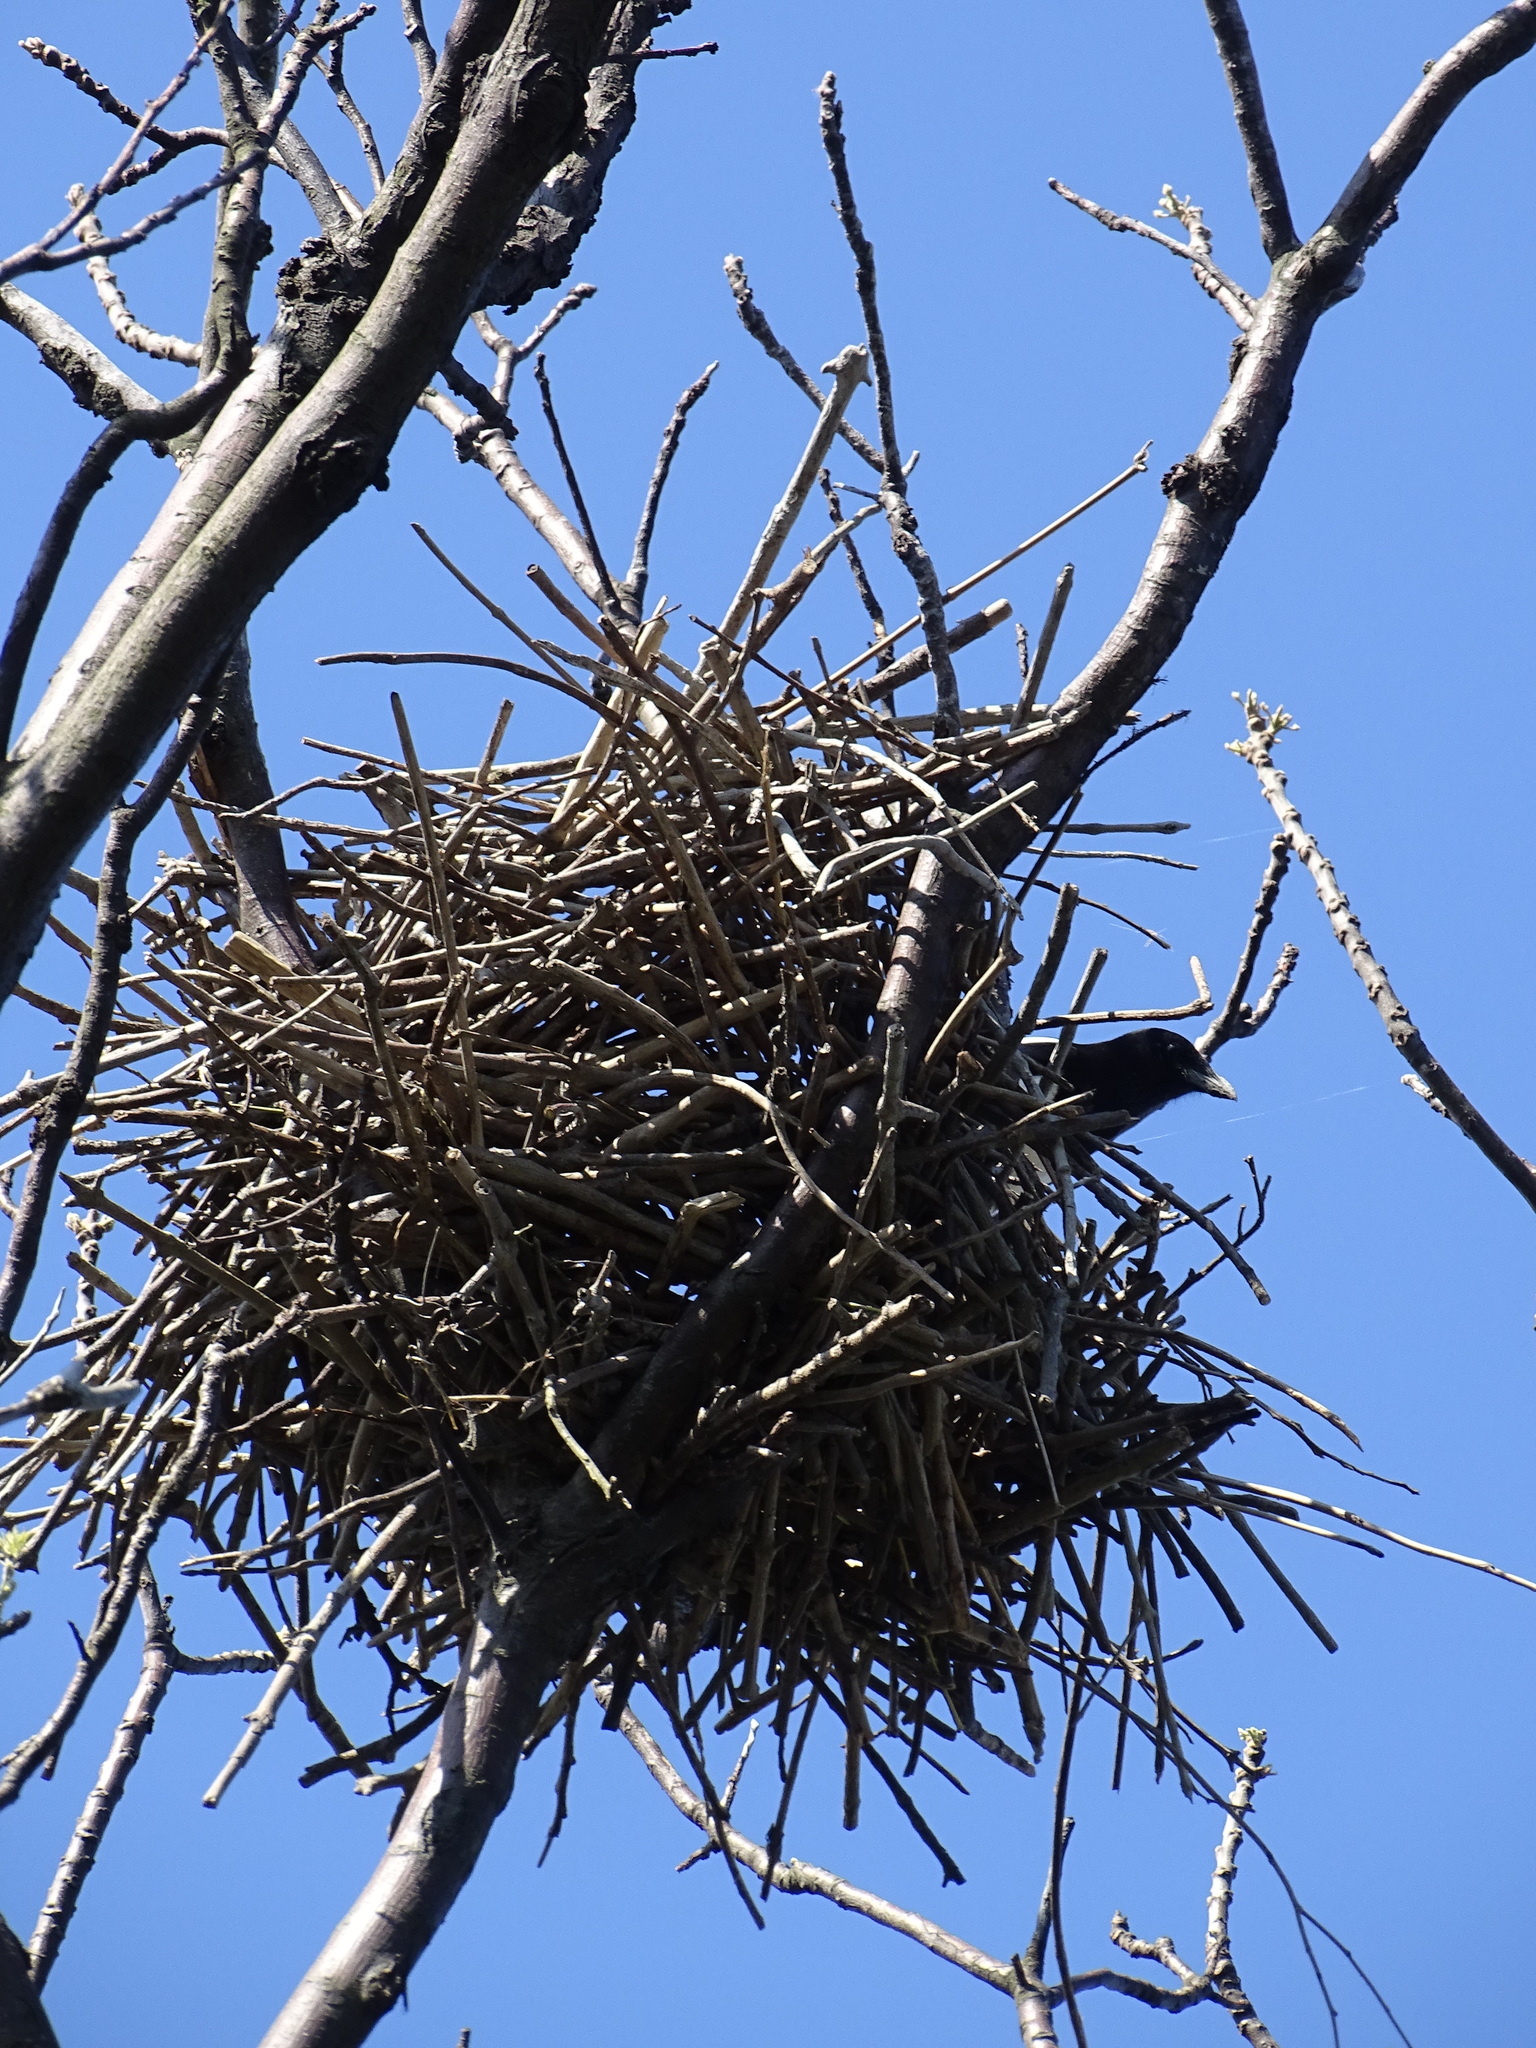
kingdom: Animalia
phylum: Chordata
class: Aves
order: Passeriformes
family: Corvidae
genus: Pica
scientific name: Pica serica
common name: Oriental magpie
